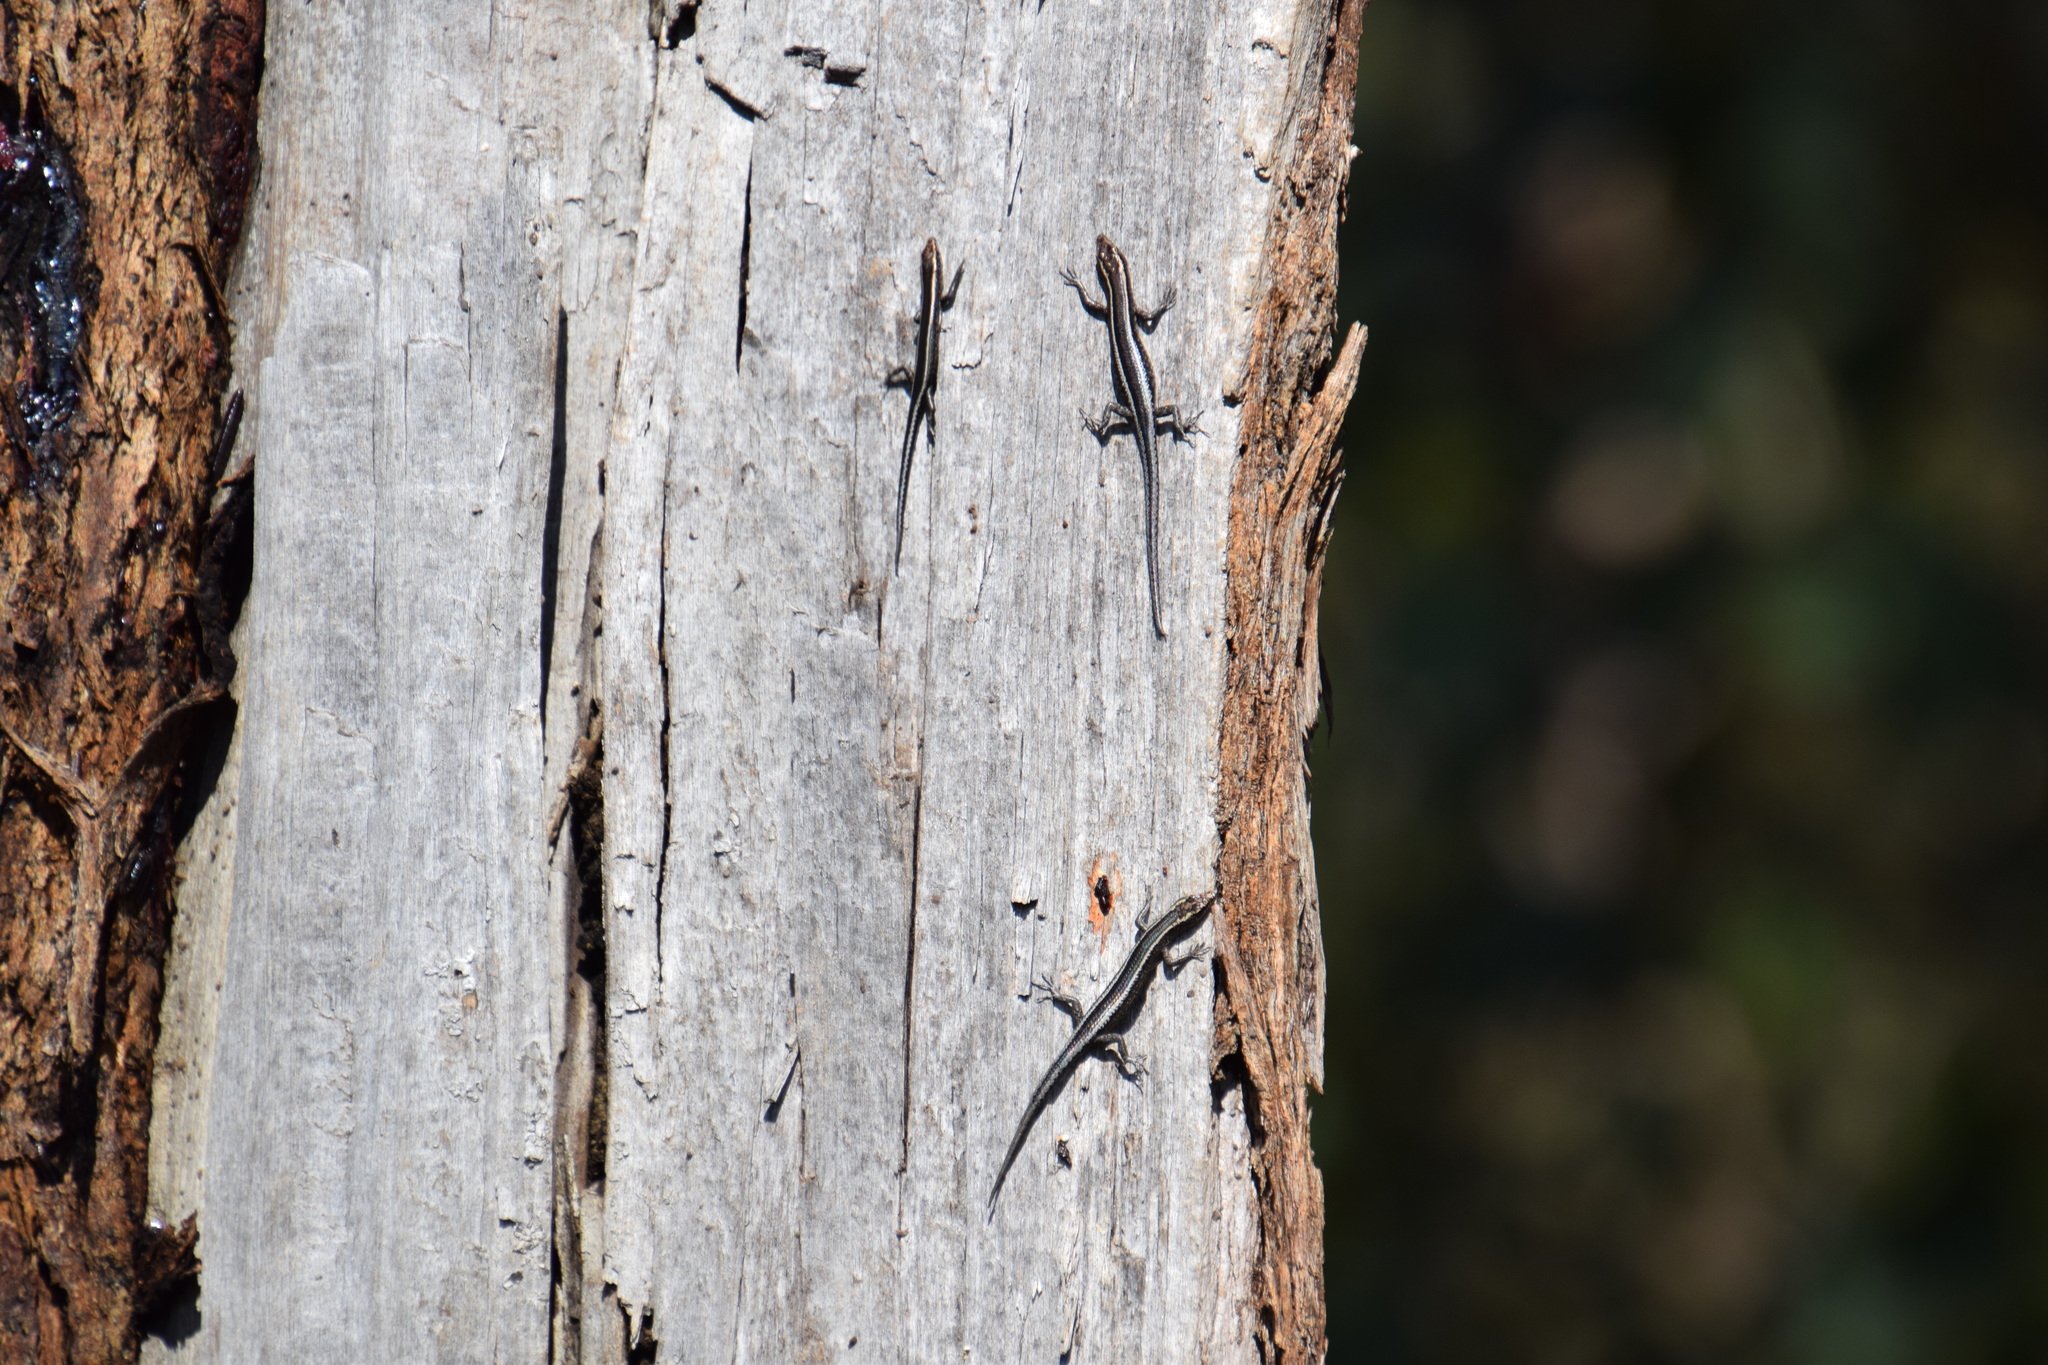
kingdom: Animalia
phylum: Chordata
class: Squamata
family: Scincidae
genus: Cryptoblepharus
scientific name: Cryptoblepharus pulcher
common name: Elegant snake-eyed skink
